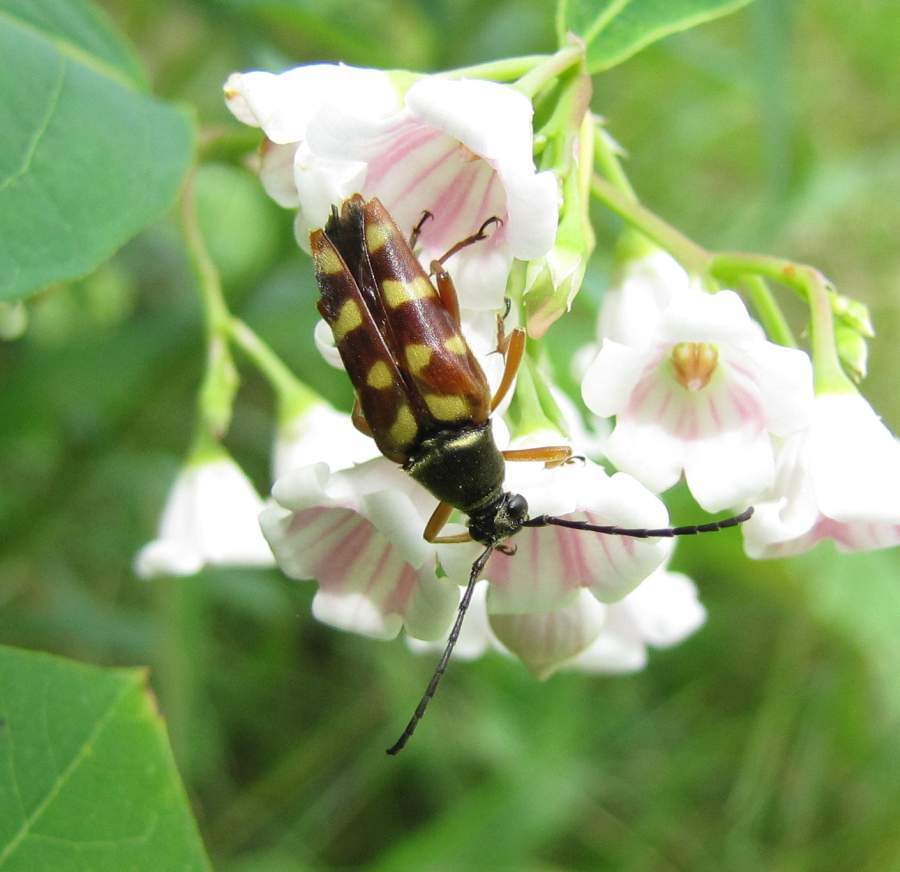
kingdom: Animalia
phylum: Arthropoda
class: Insecta
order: Coleoptera
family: Cerambycidae
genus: Typocerus
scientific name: Typocerus velutinus
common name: Banded longhorn beetle
